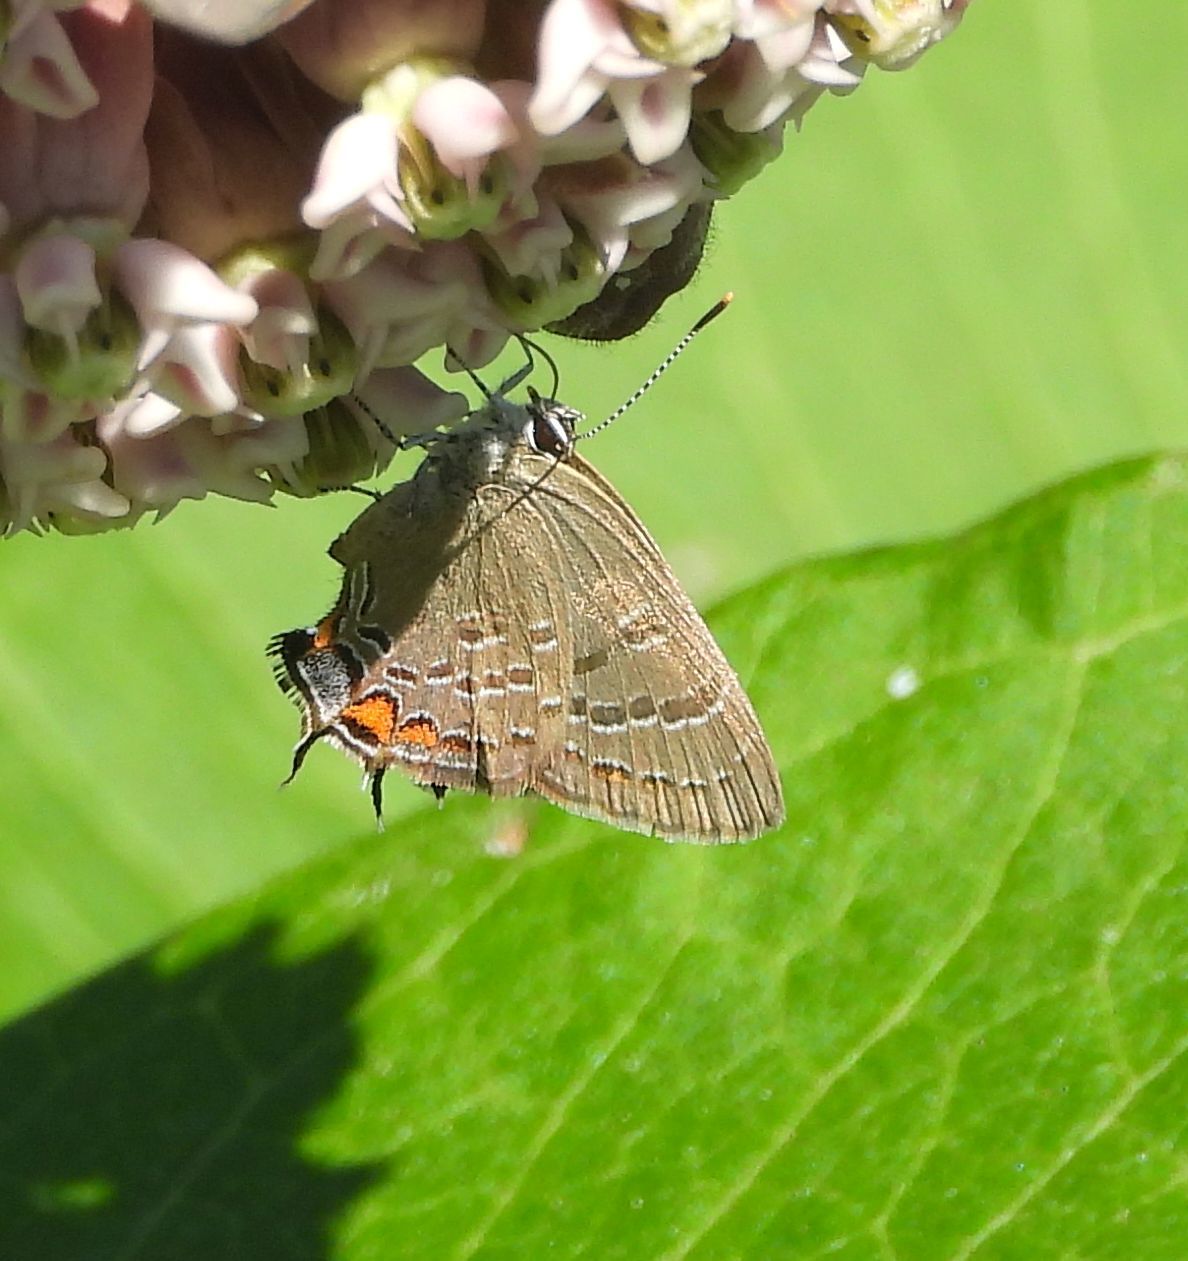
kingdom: Animalia
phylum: Arthropoda
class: Insecta
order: Lepidoptera
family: Lycaenidae
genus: Satyrium
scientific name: Satyrium calanus
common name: Banded hairstreak
